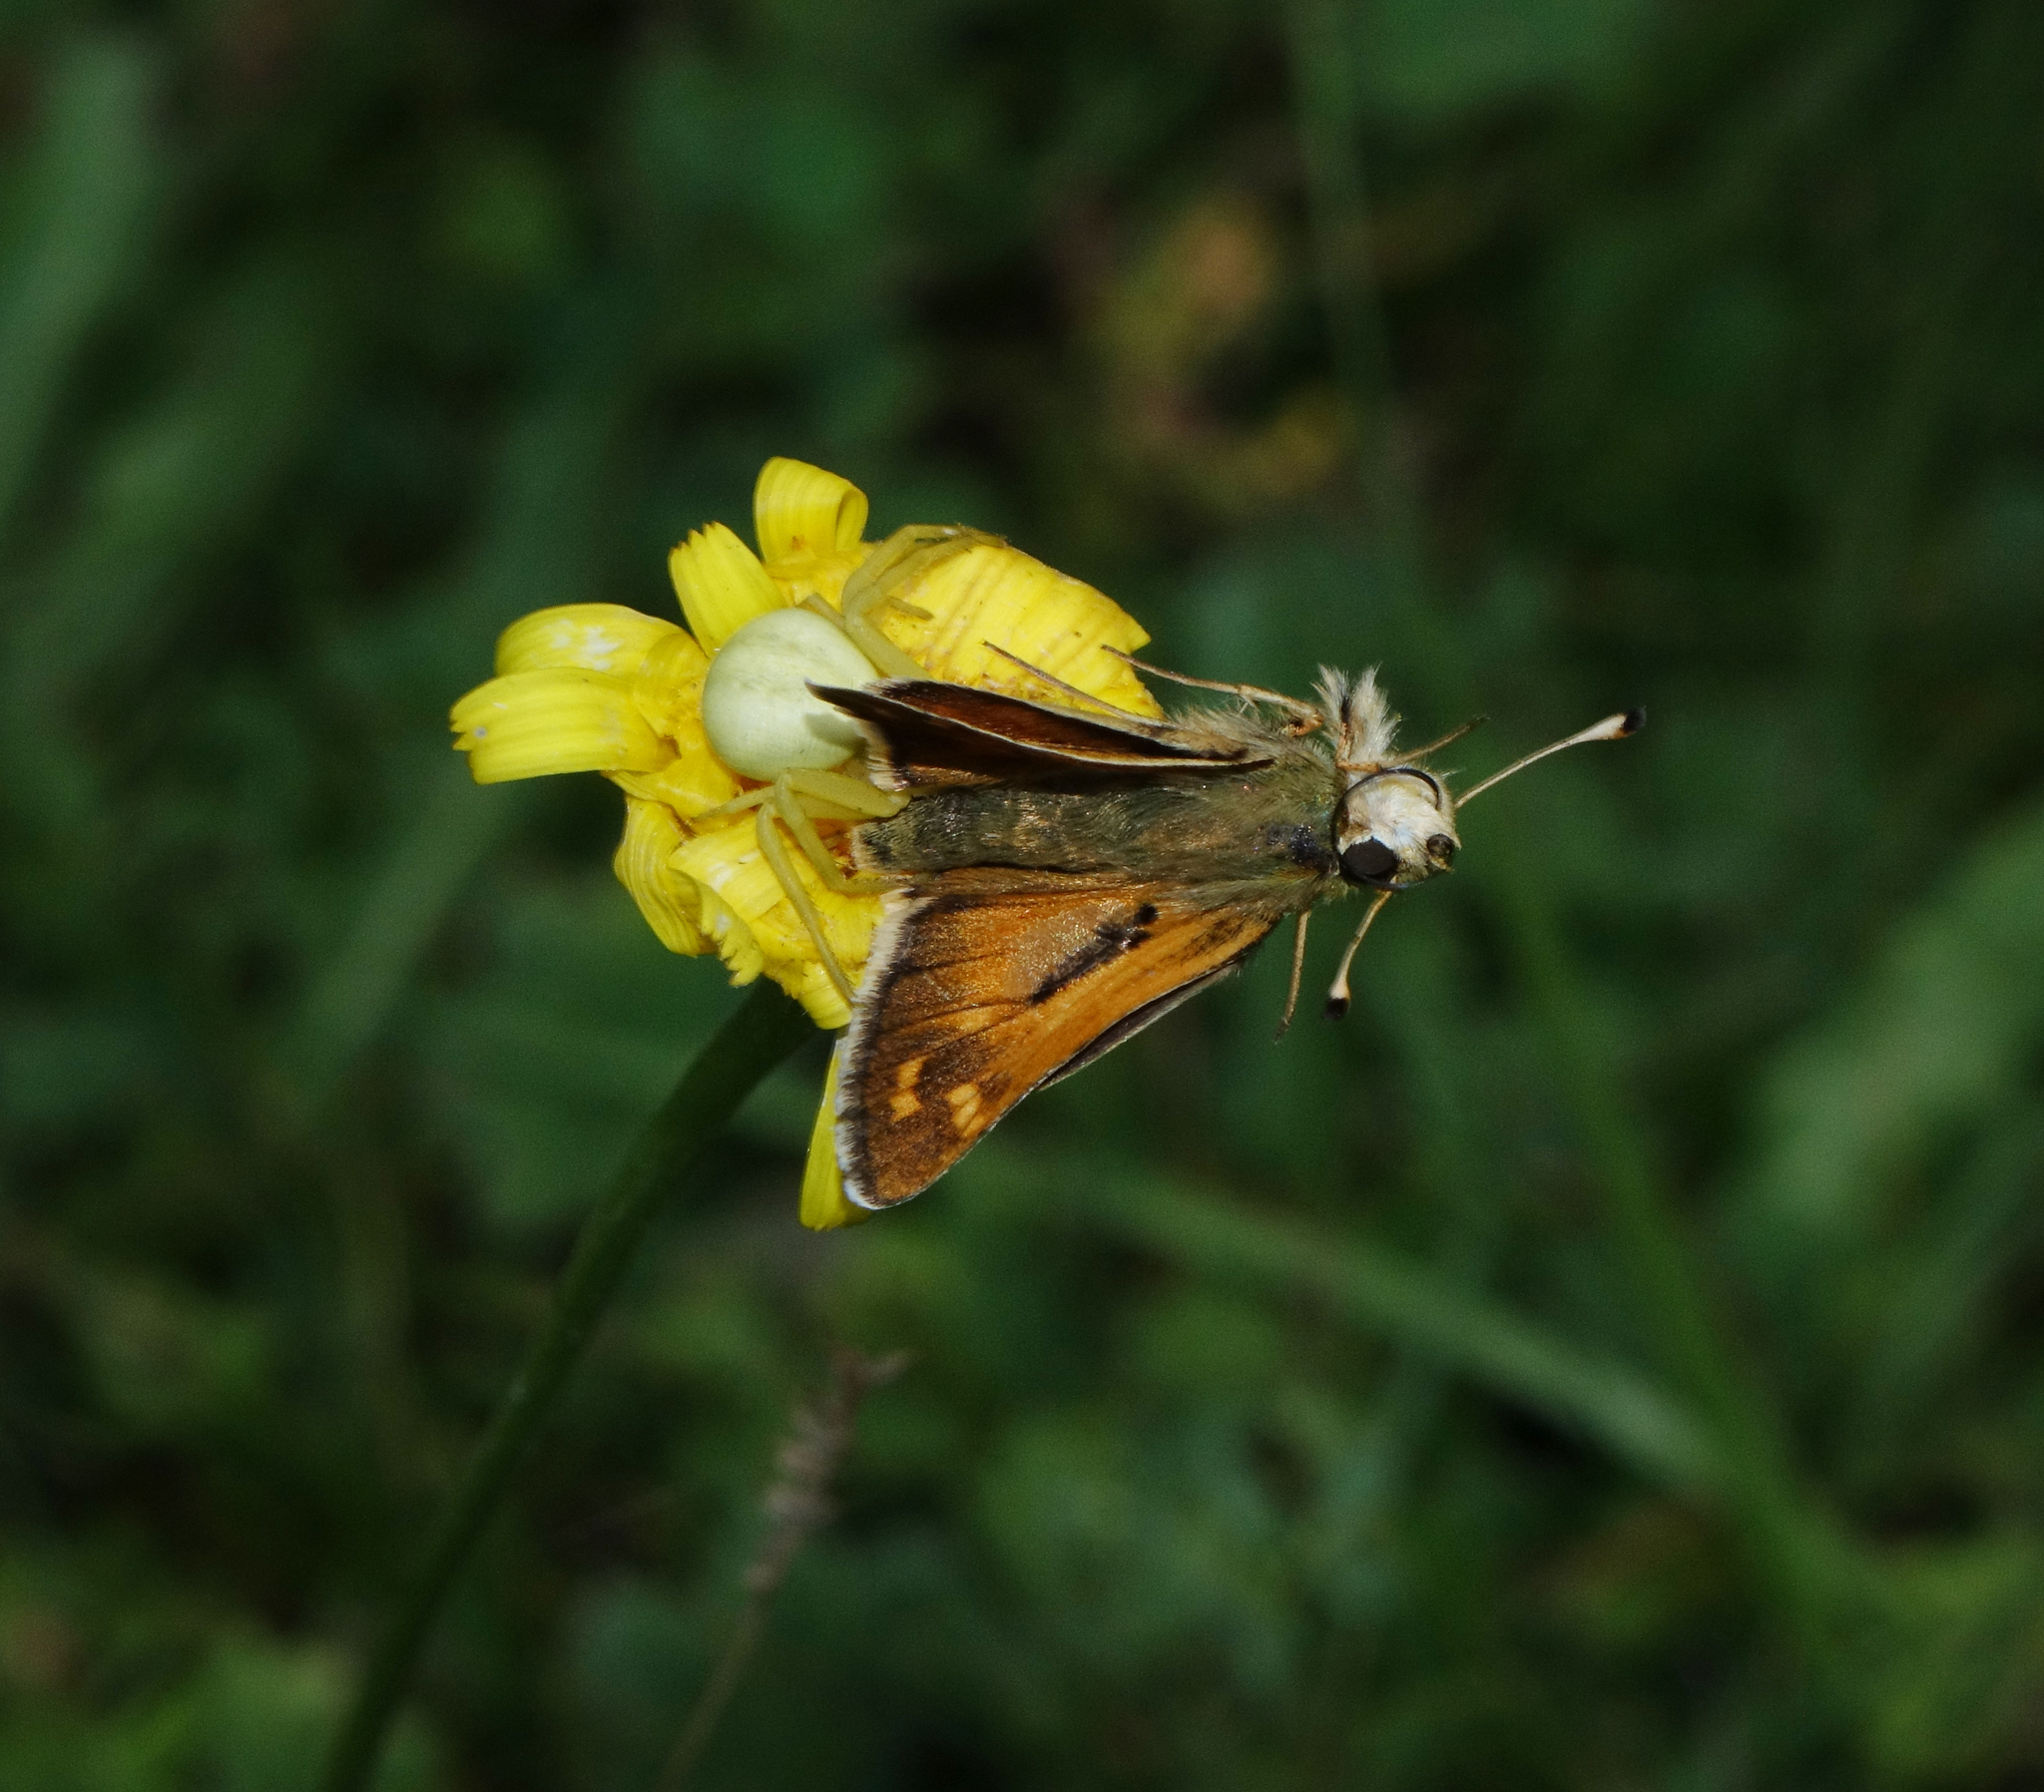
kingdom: Animalia
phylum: Arthropoda
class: Insecta
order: Lepidoptera
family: Hesperiidae
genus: Hesperia
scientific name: Hesperia comma
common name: Common branded skipper
